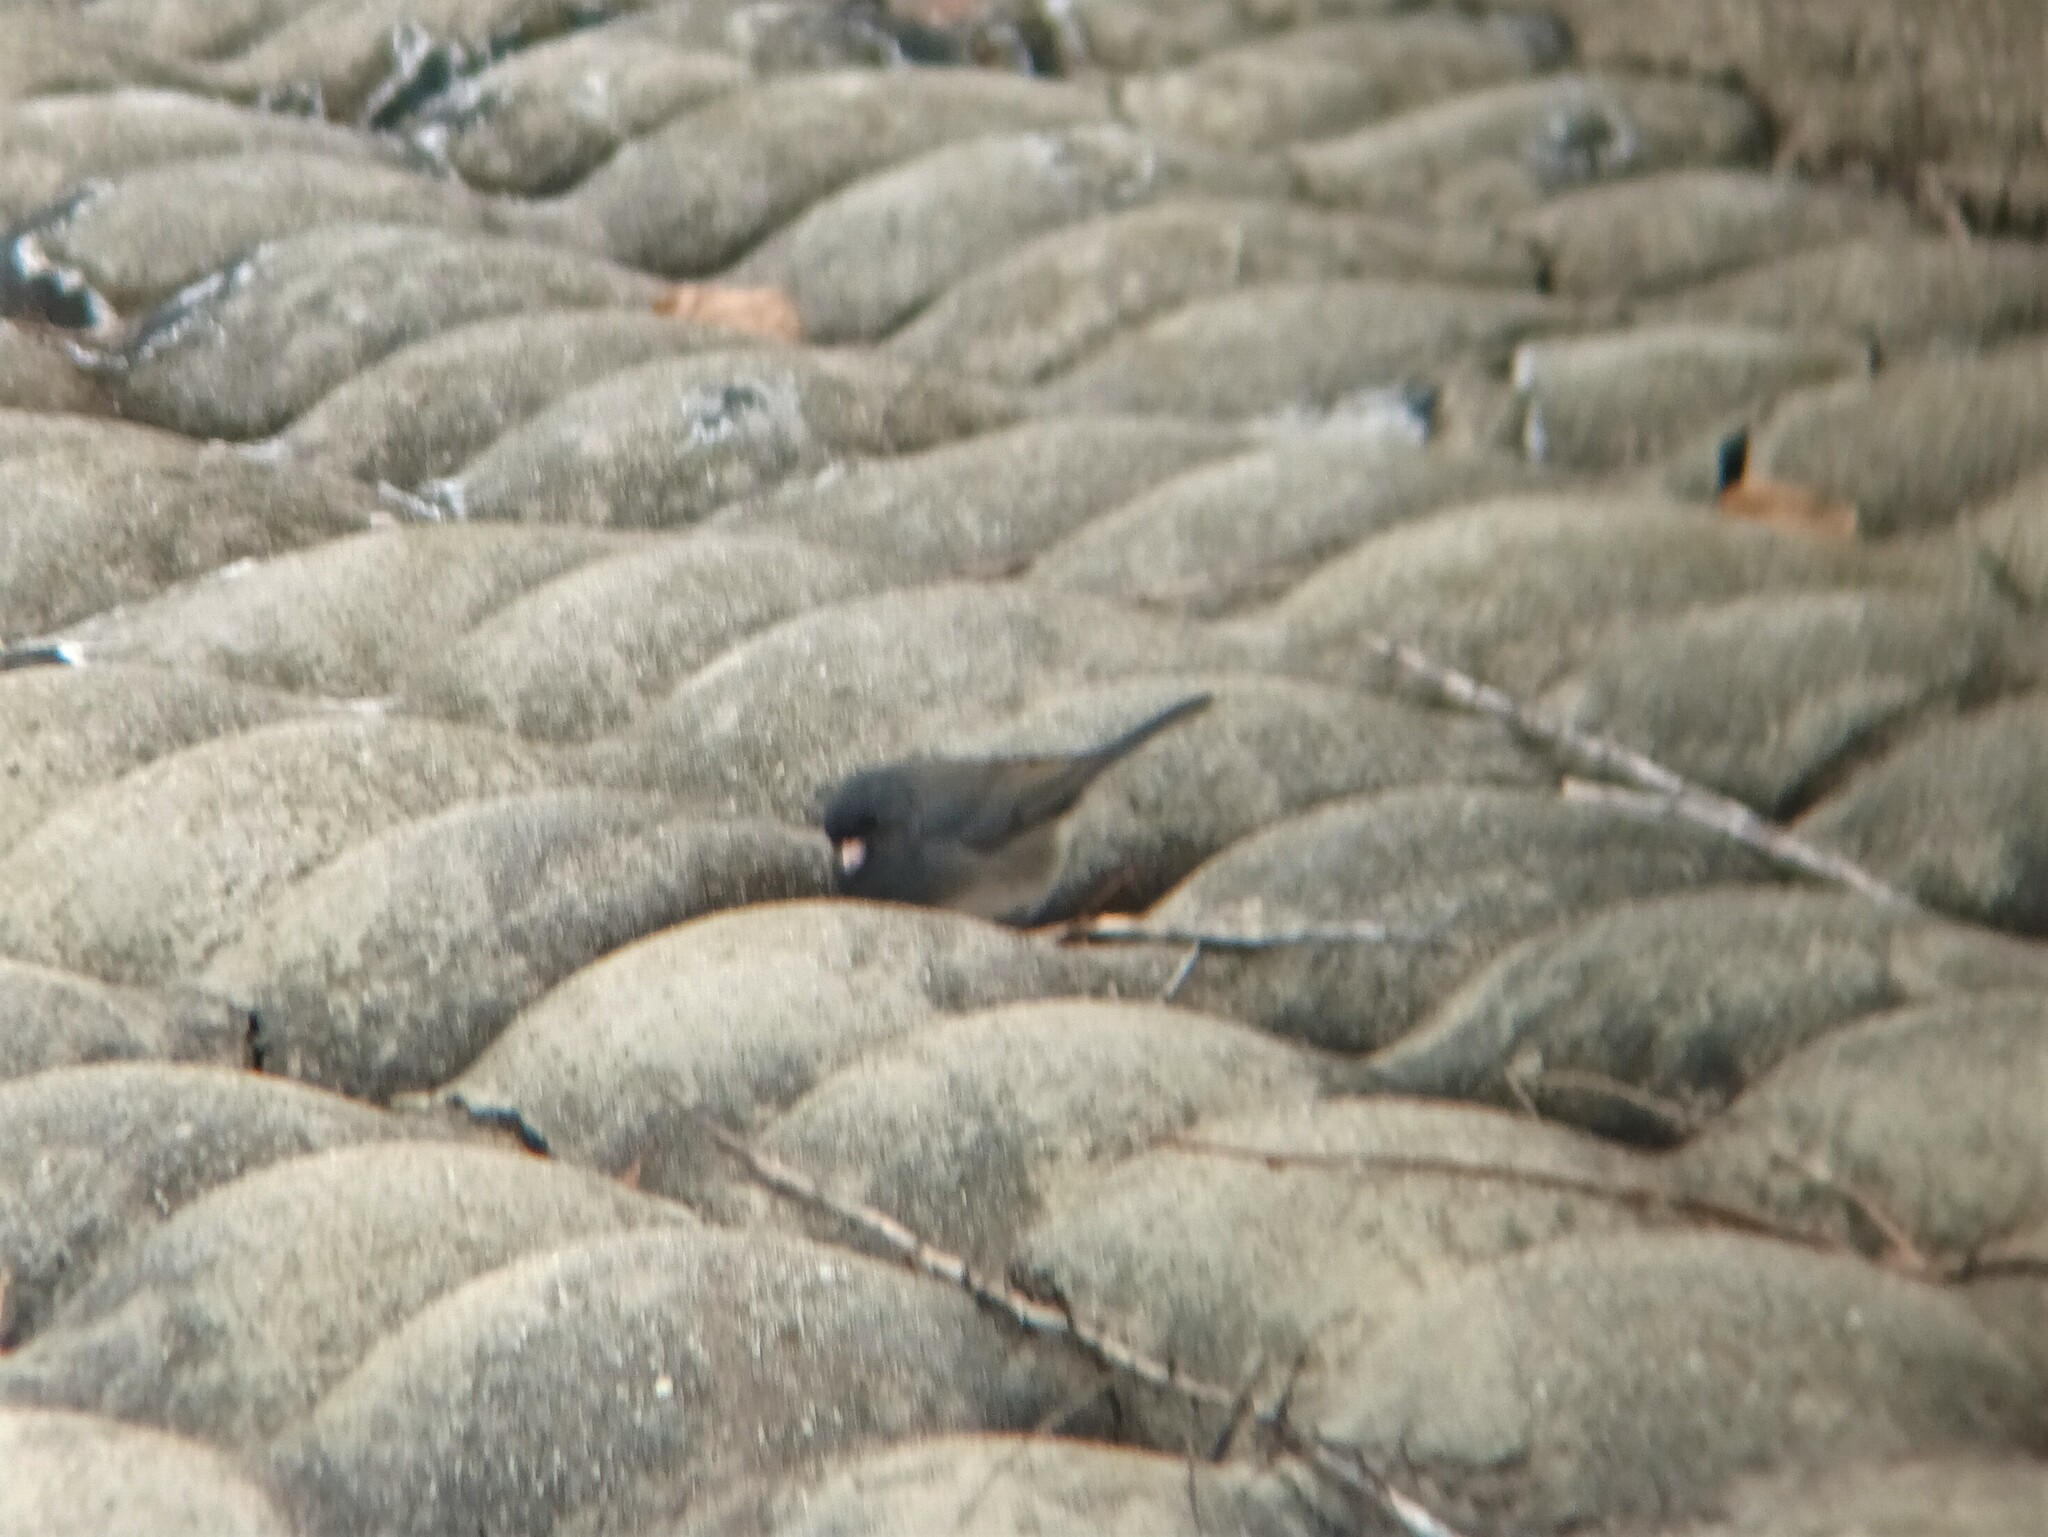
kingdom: Animalia
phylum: Chordata
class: Aves
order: Passeriformes
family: Passerellidae
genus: Junco
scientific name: Junco hyemalis
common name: Dark-eyed junco
